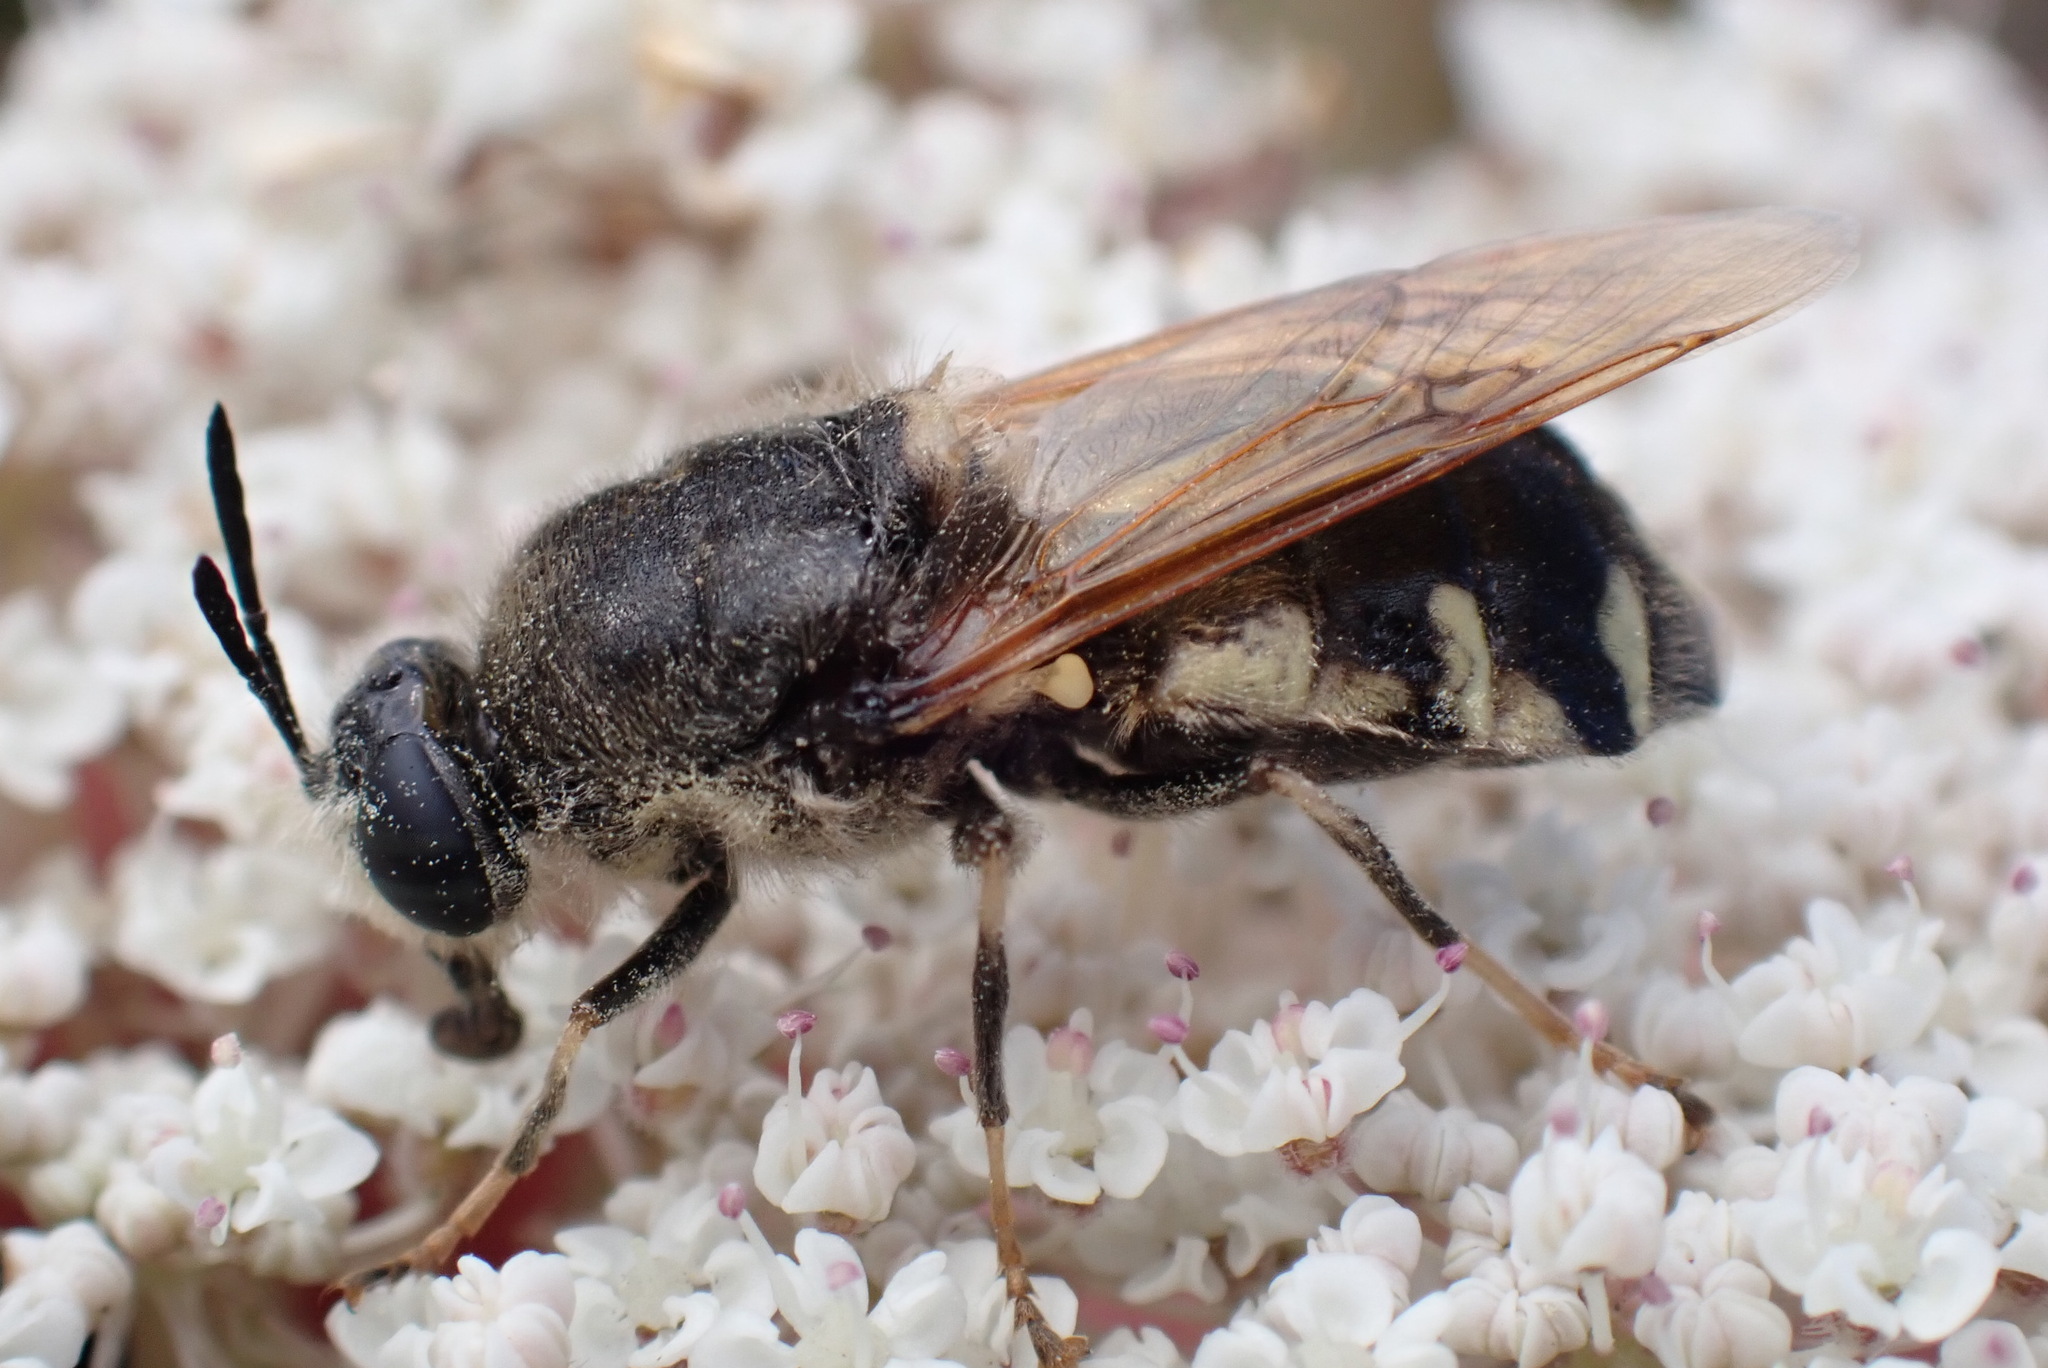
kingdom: Animalia
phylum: Arthropoda
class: Insecta
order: Diptera
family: Stratiomyidae
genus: Stratiomys
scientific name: Stratiomys singularior
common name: Flecked general
